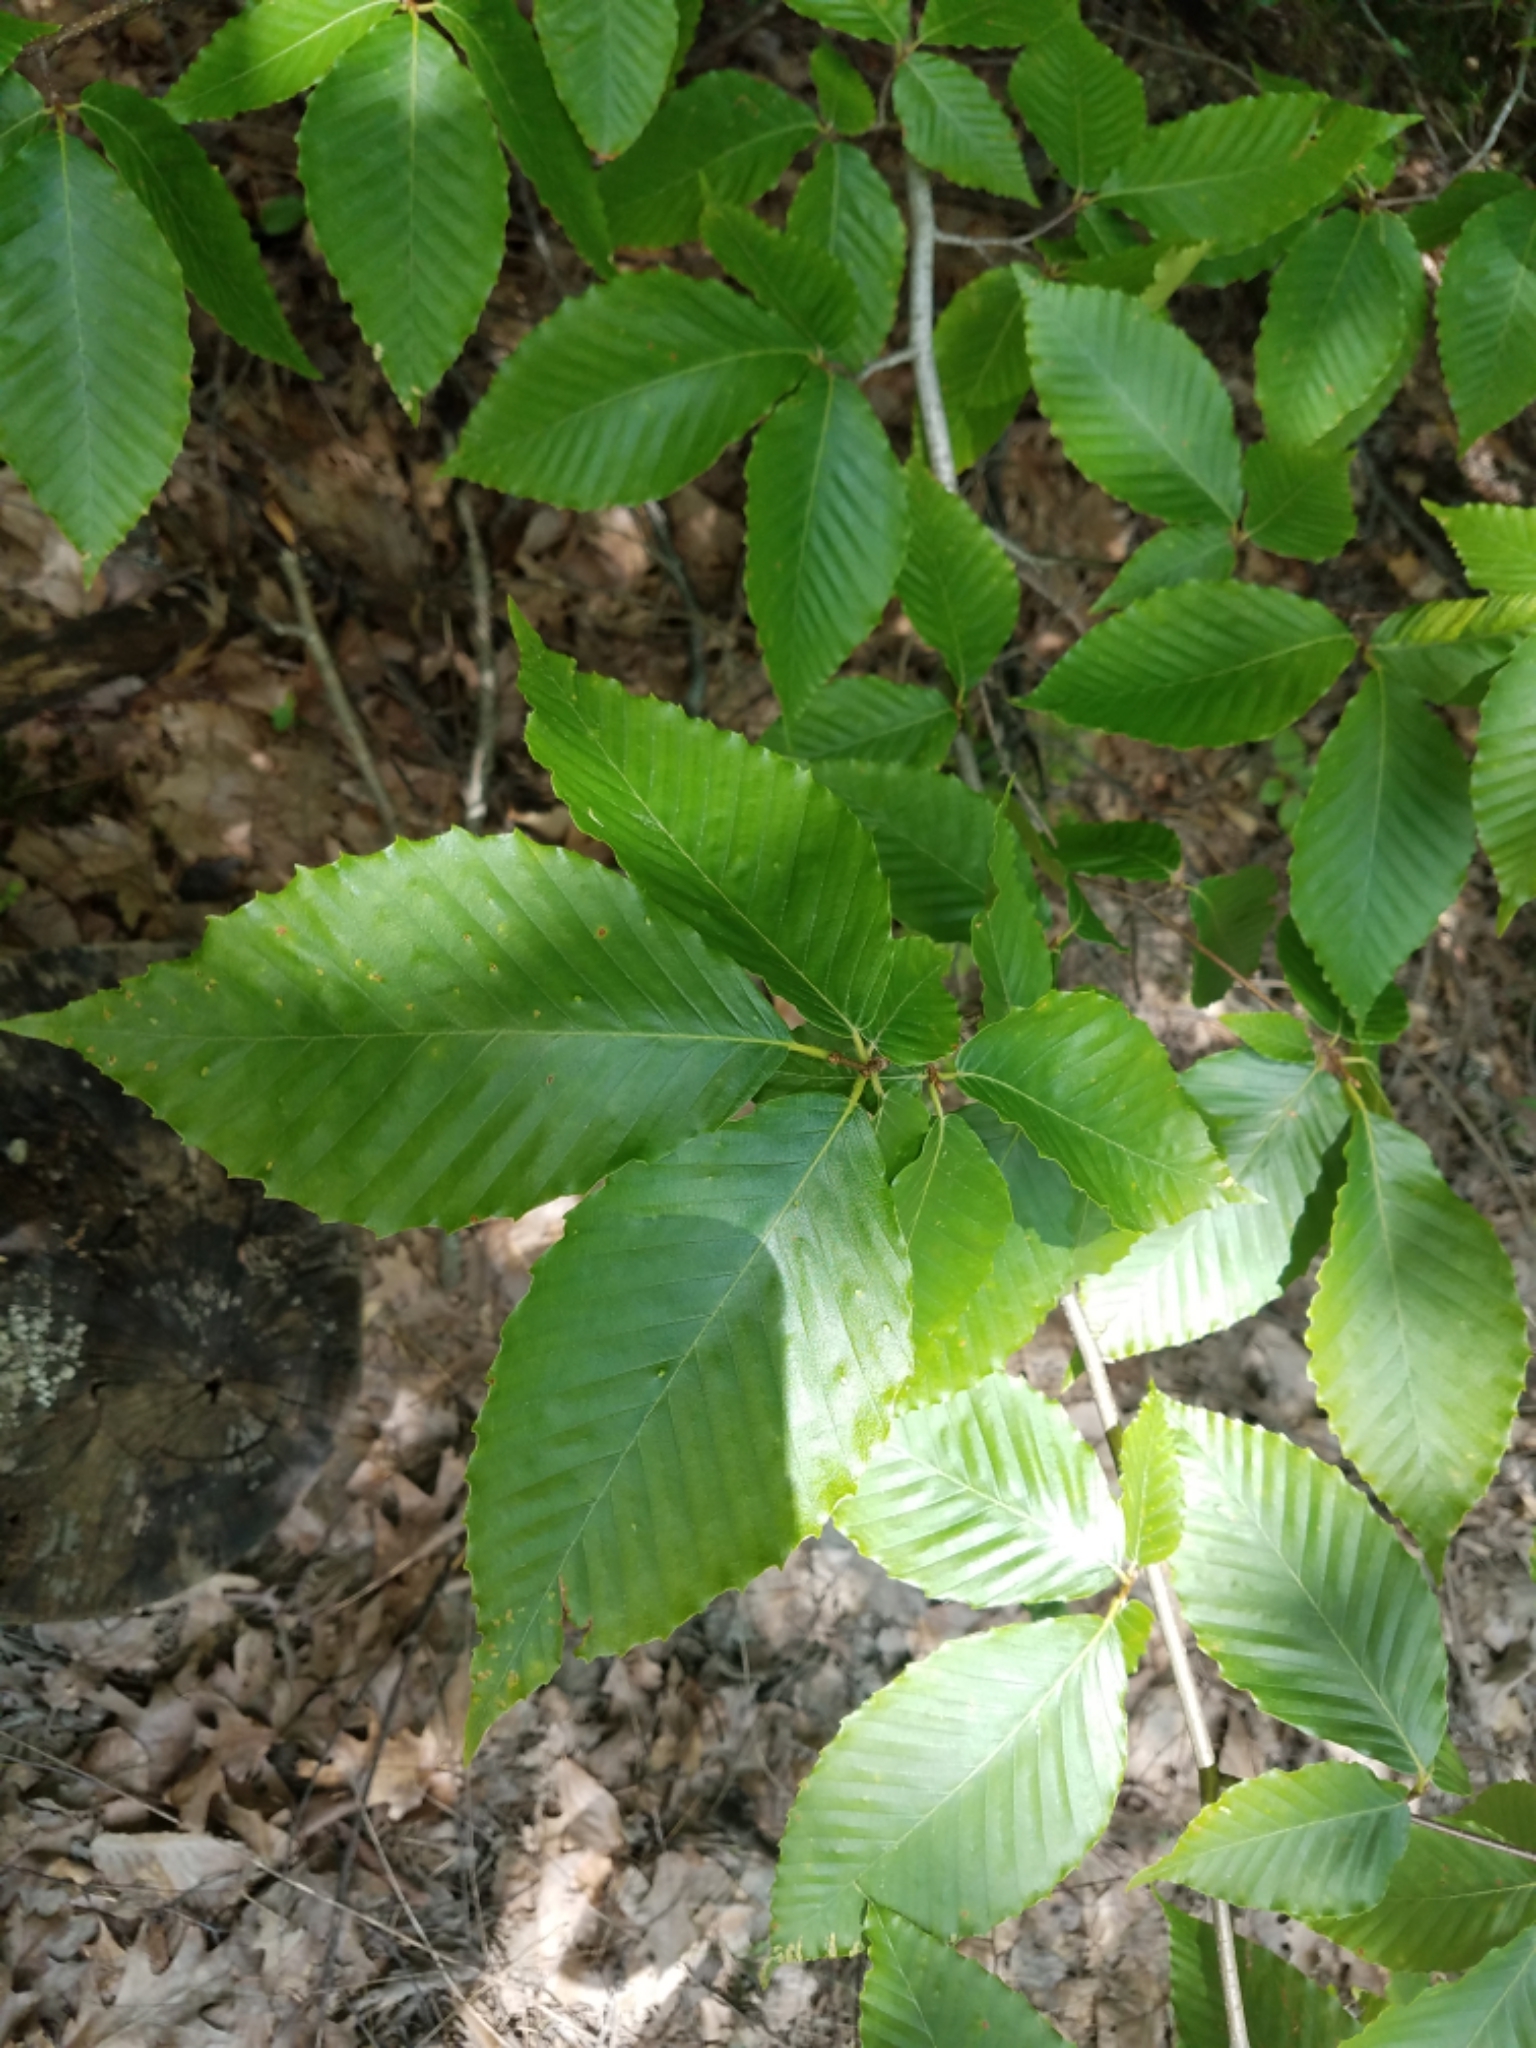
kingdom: Plantae
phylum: Tracheophyta
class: Magnoliopsida
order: Fagales
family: Fagaceae
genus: Fagus
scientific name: Fagus grandifolia
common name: American beech
